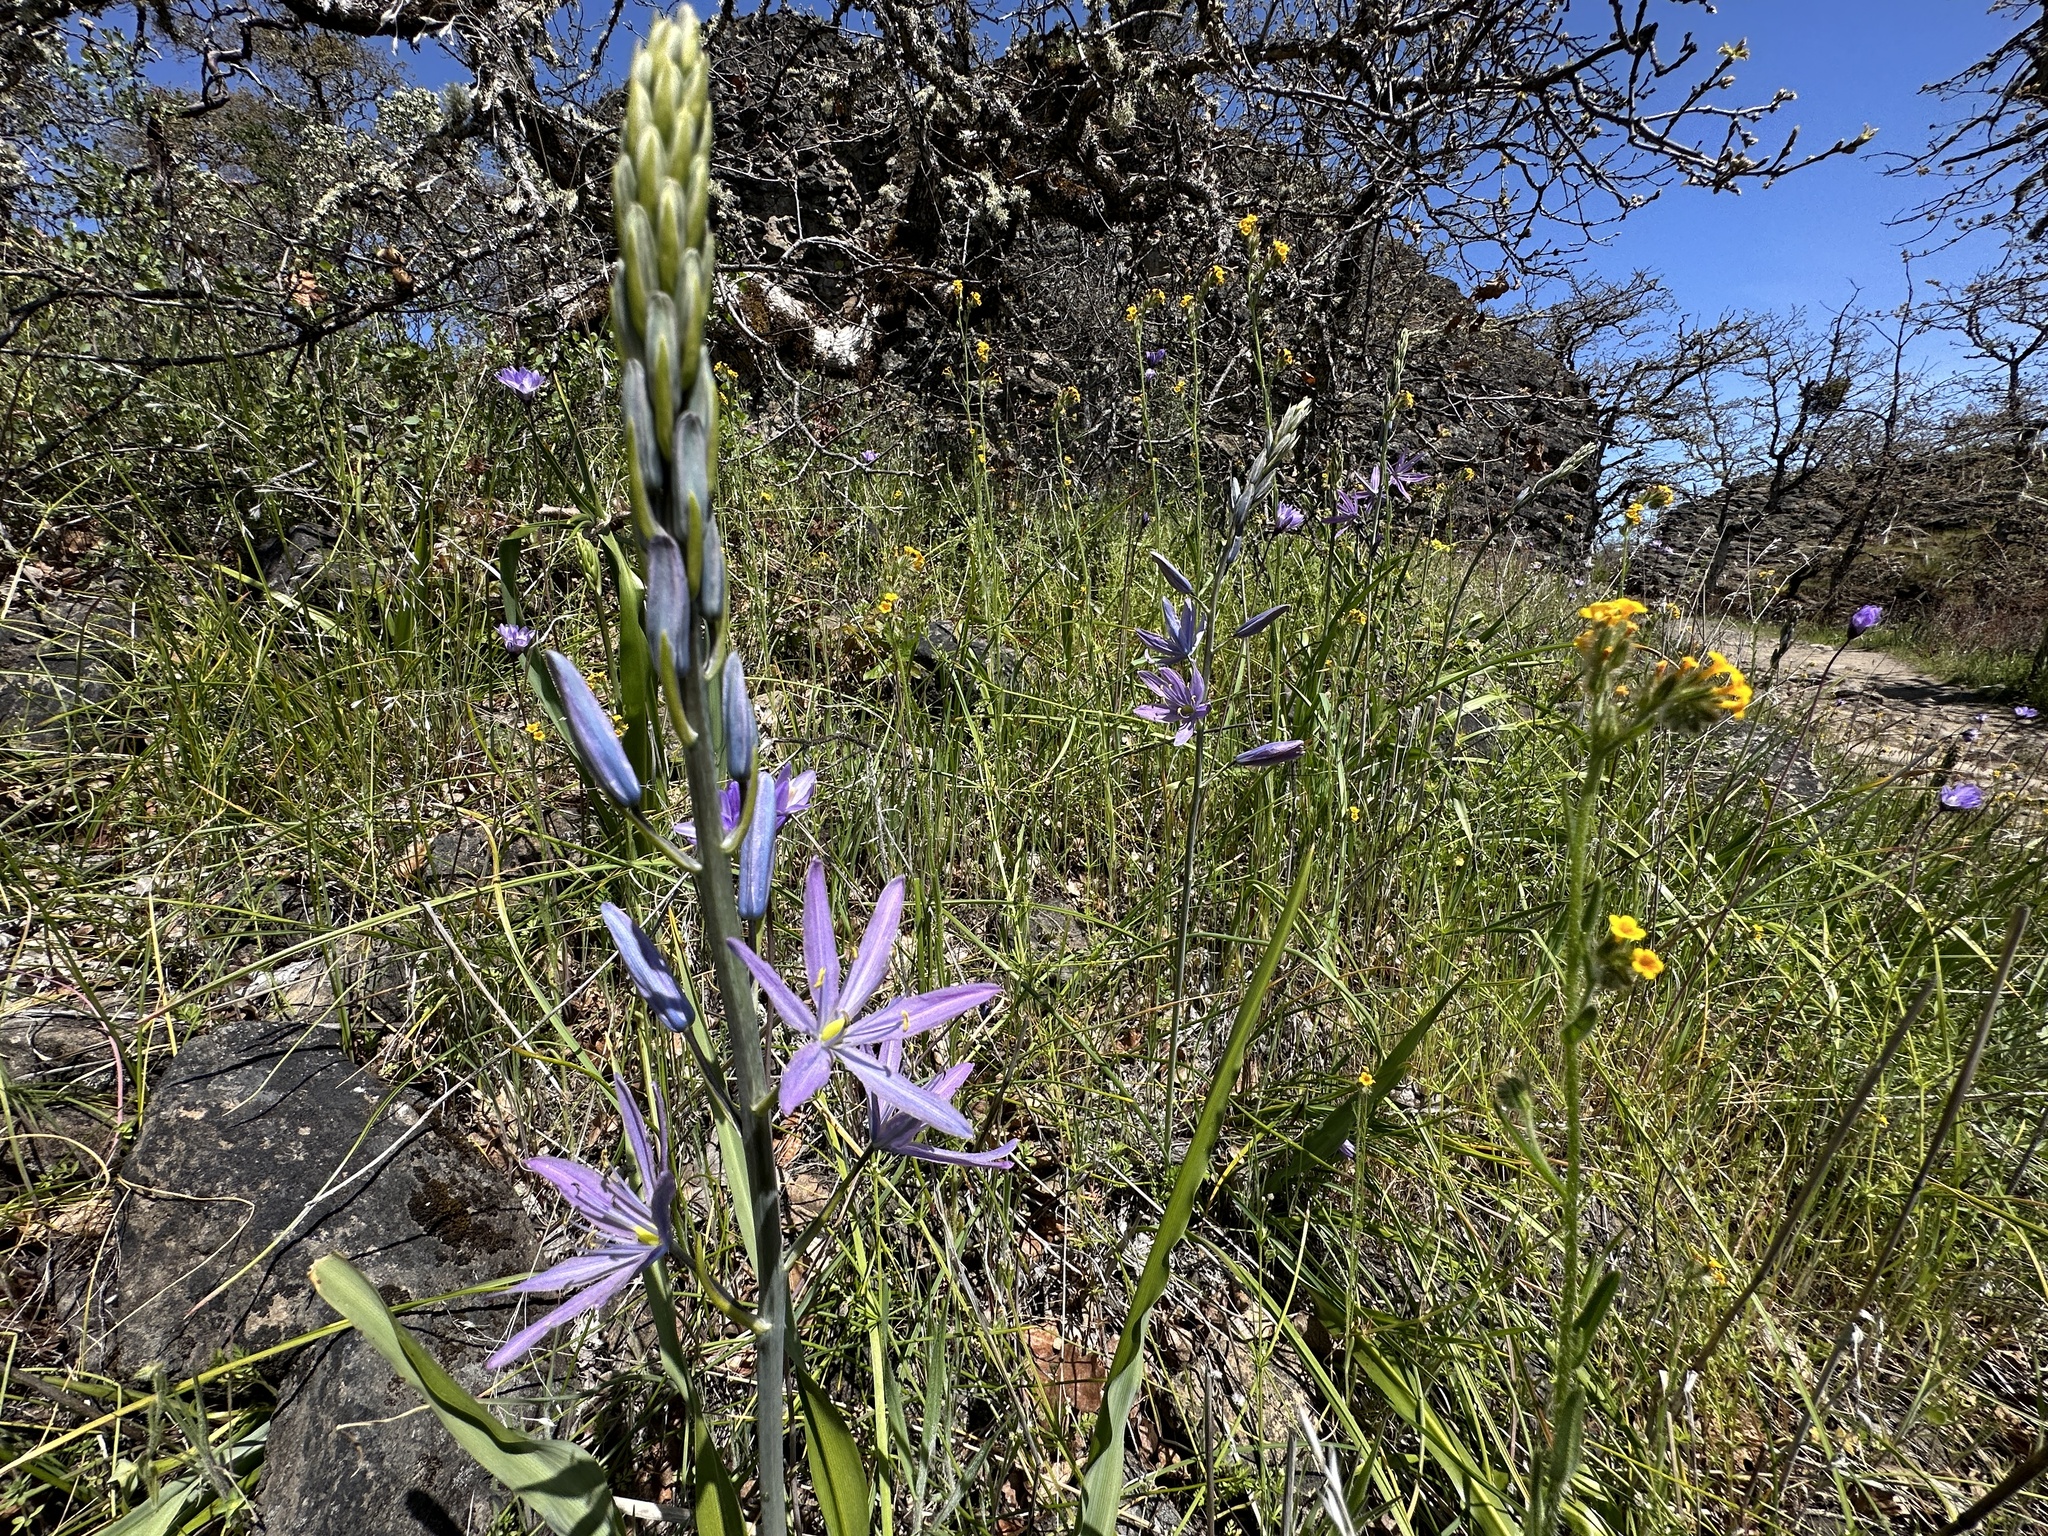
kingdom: Plantae
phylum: Tracheophyta
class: Liliopsida
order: Asparagales
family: Asparagaceae
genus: Camassia
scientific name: Camassia quamash
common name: Common camas
